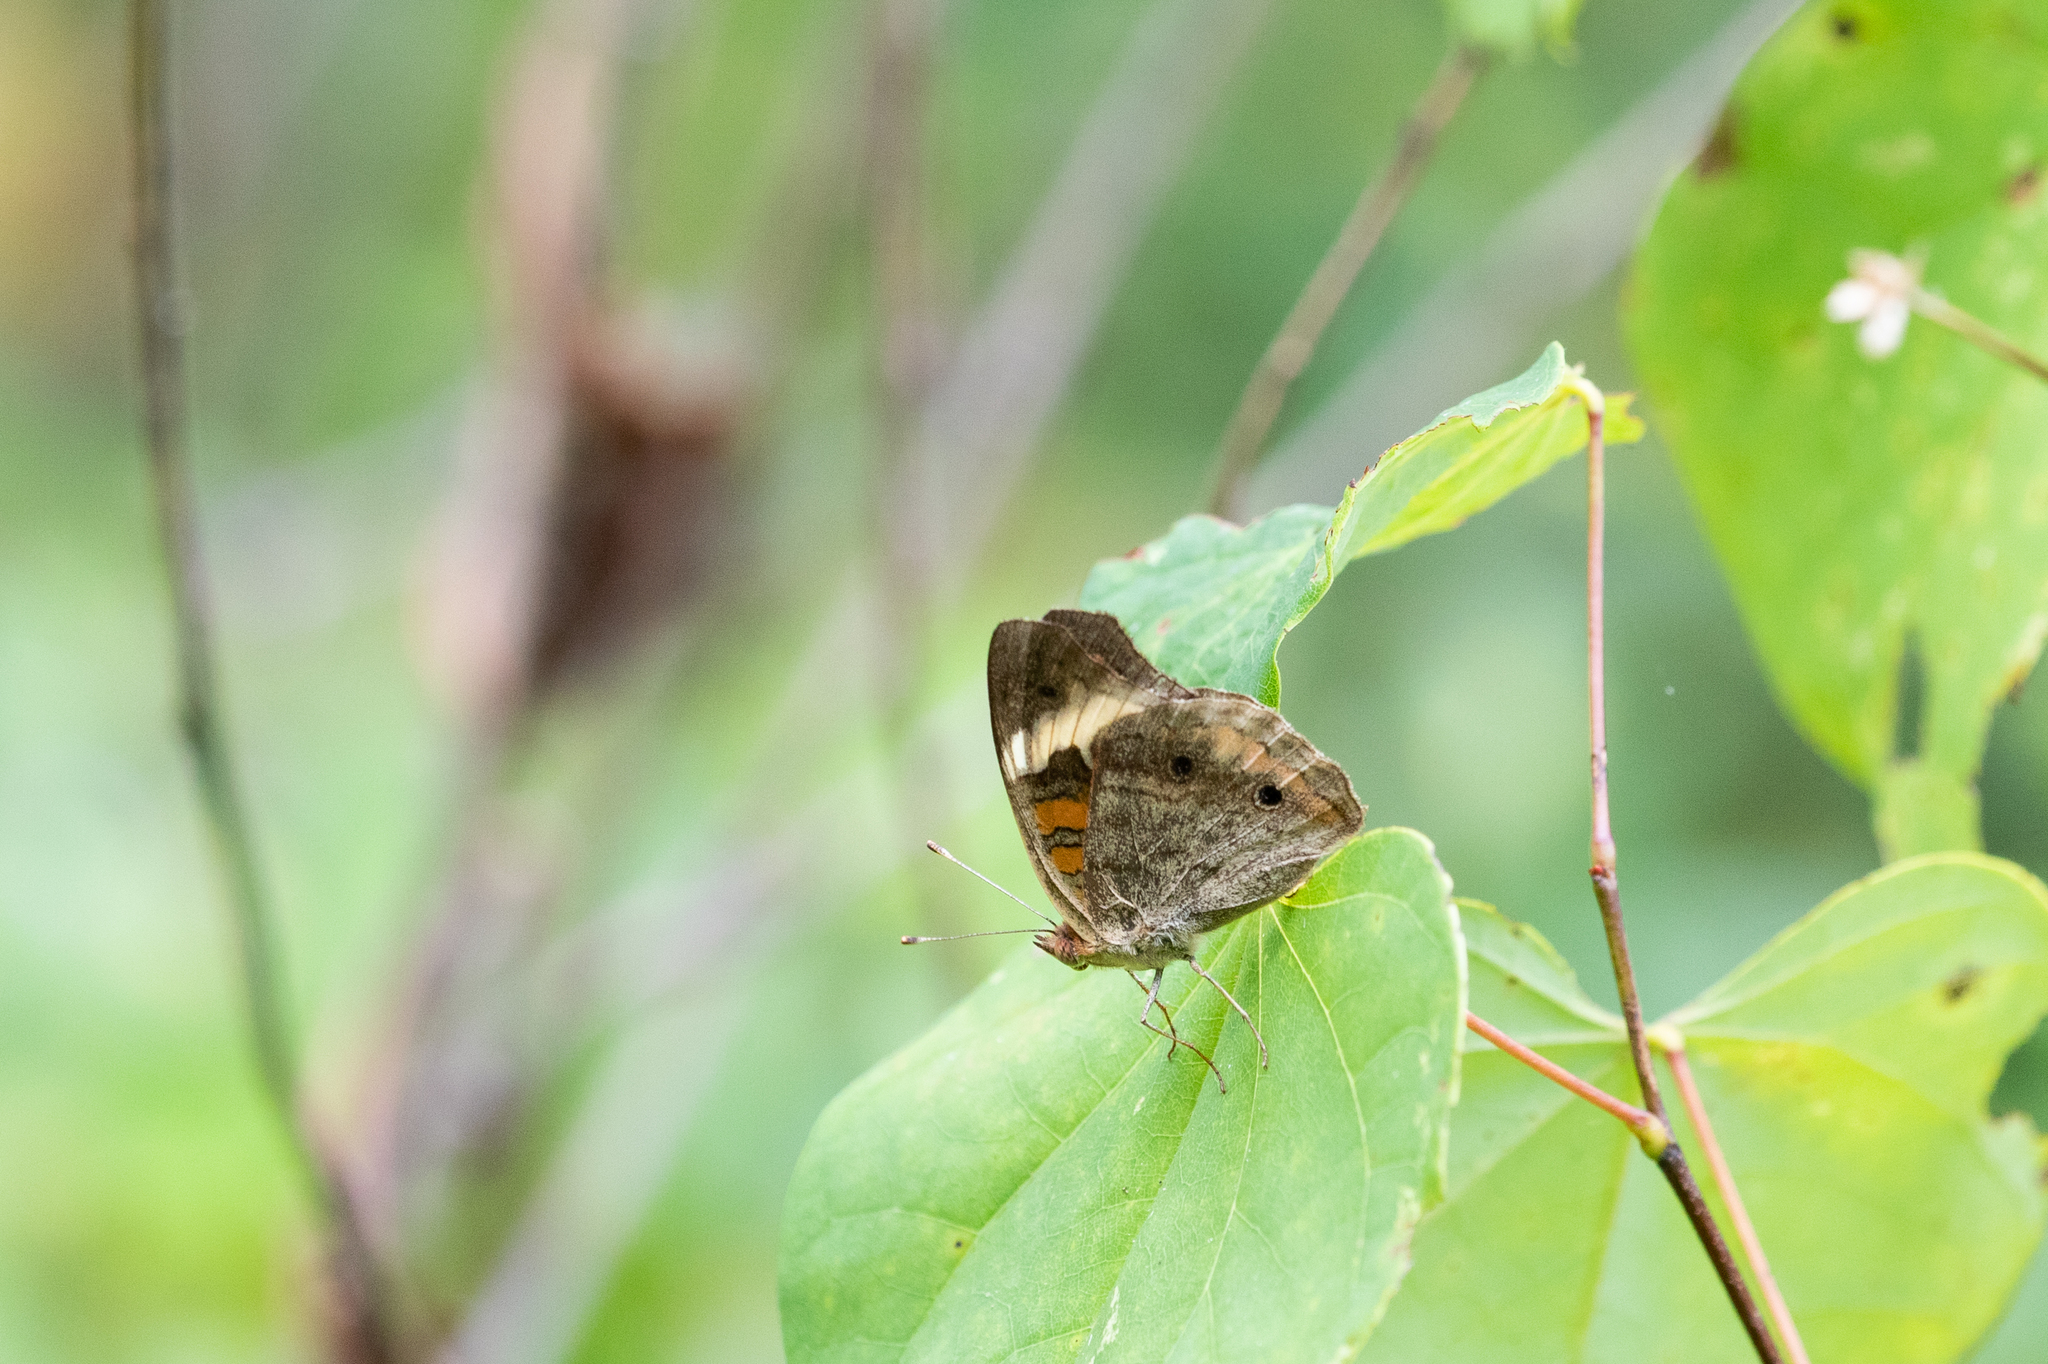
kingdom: Animalia
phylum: Arthropoda
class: Insecta
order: Lepidoptera
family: Nymphalidae
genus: Junonia
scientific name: Junonia coenia
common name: Common buckeye
